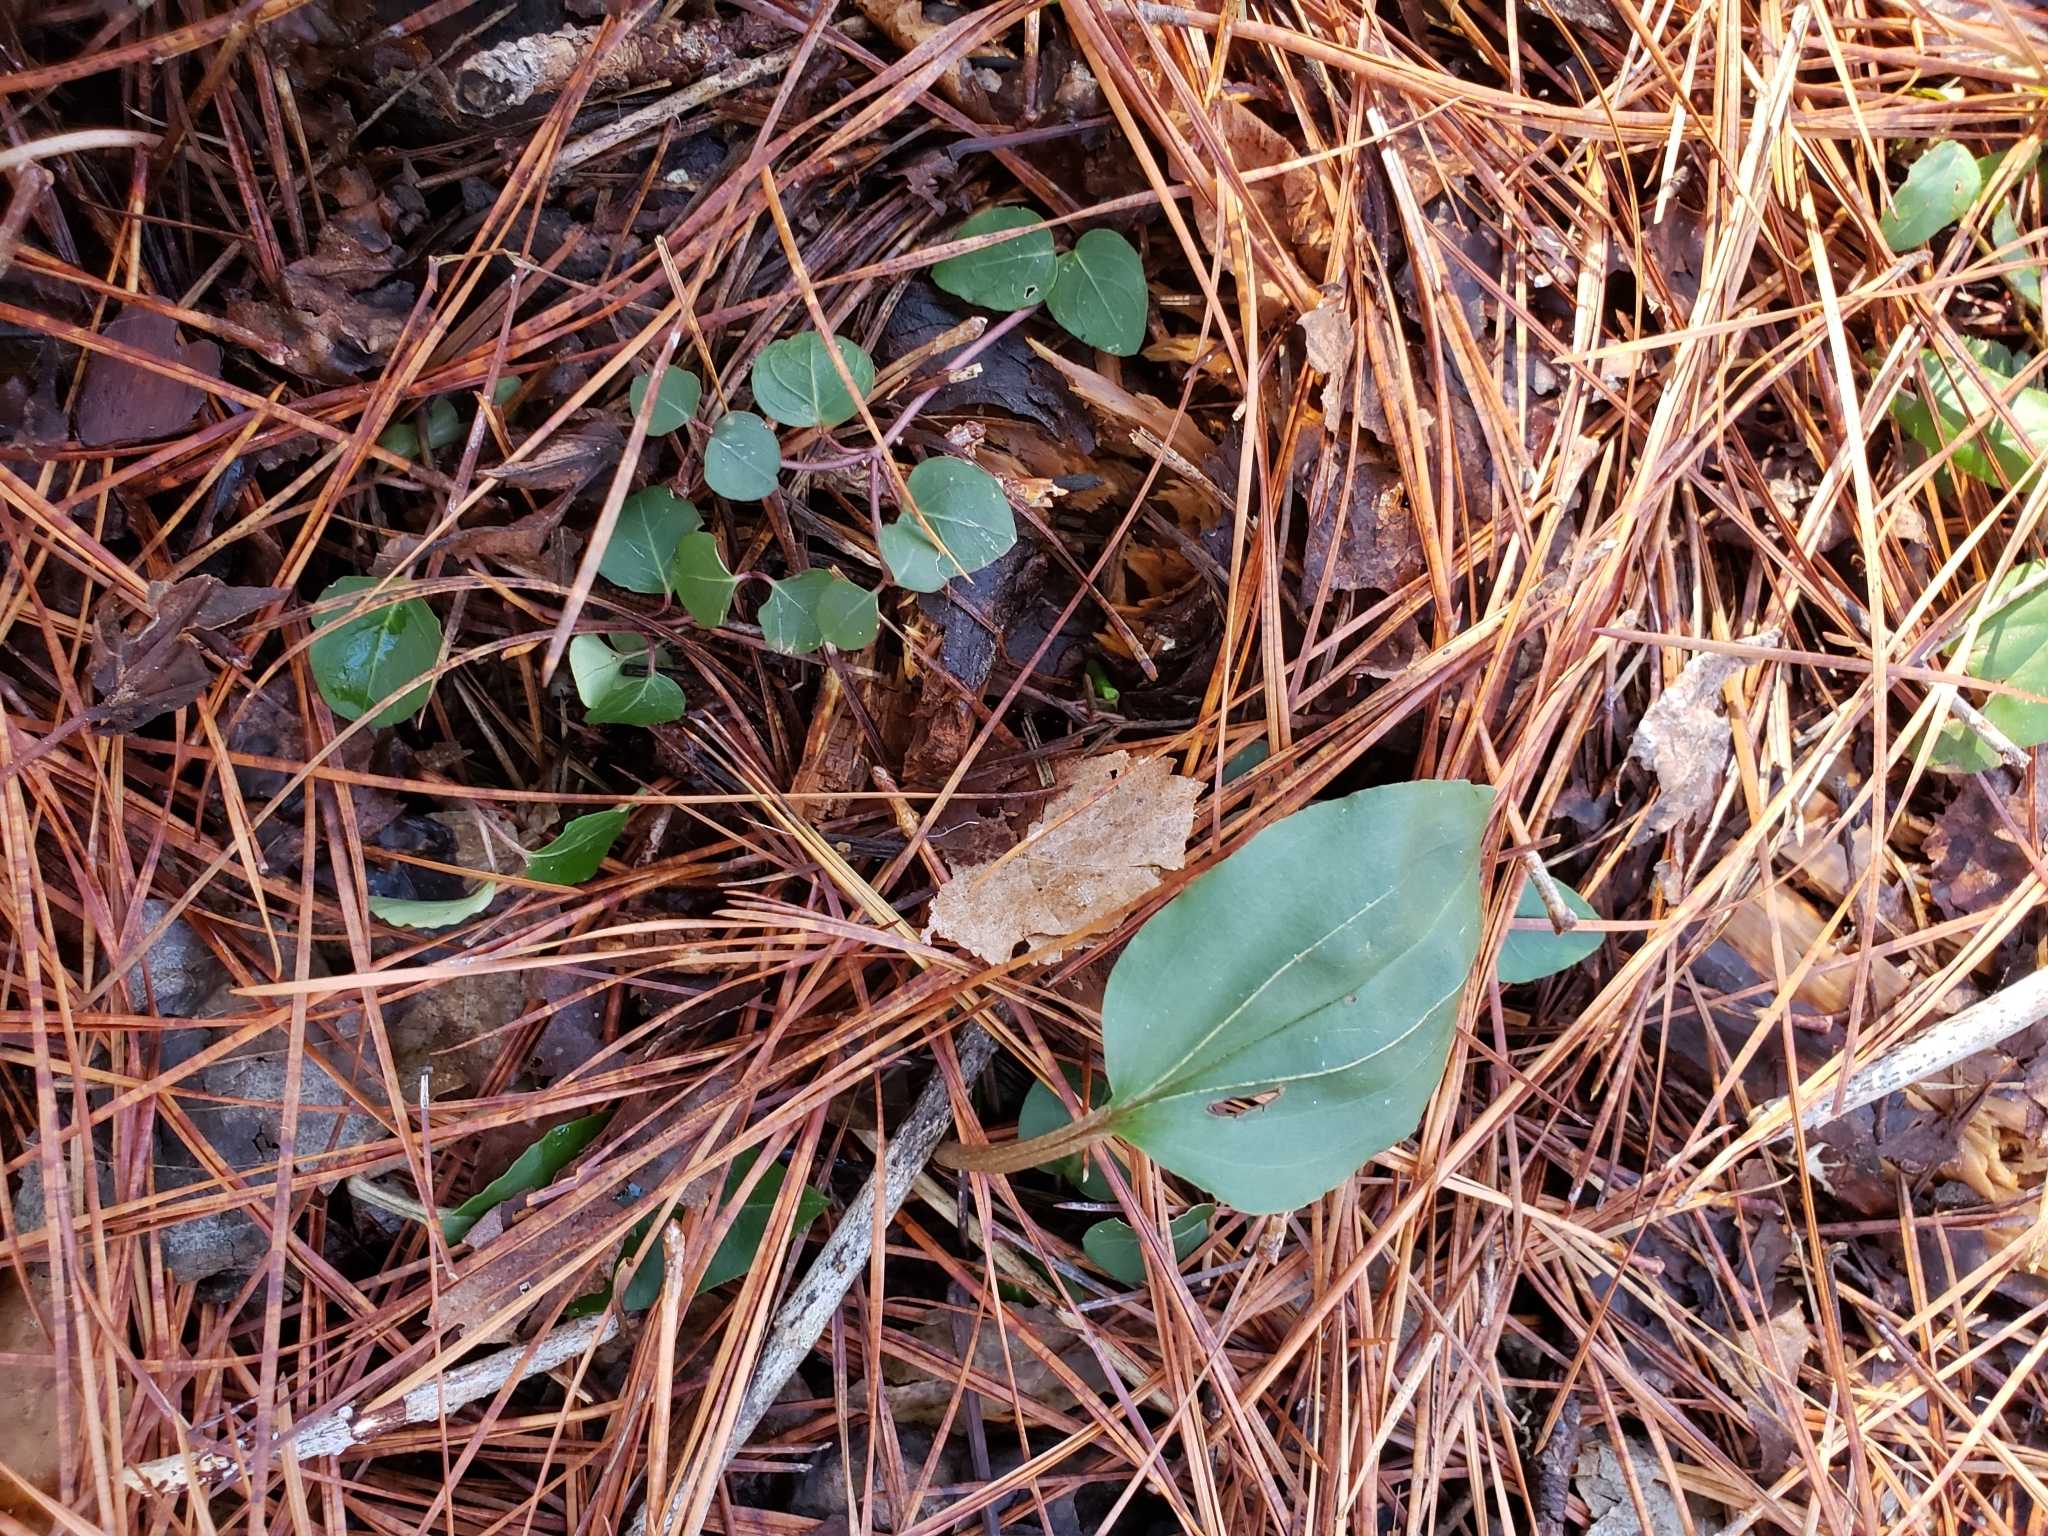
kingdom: Plantae
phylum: Tracheophyta
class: Liliopsida
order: Asparagales
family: Orchidaceae
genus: Tipularia
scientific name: Tipularia discolor
